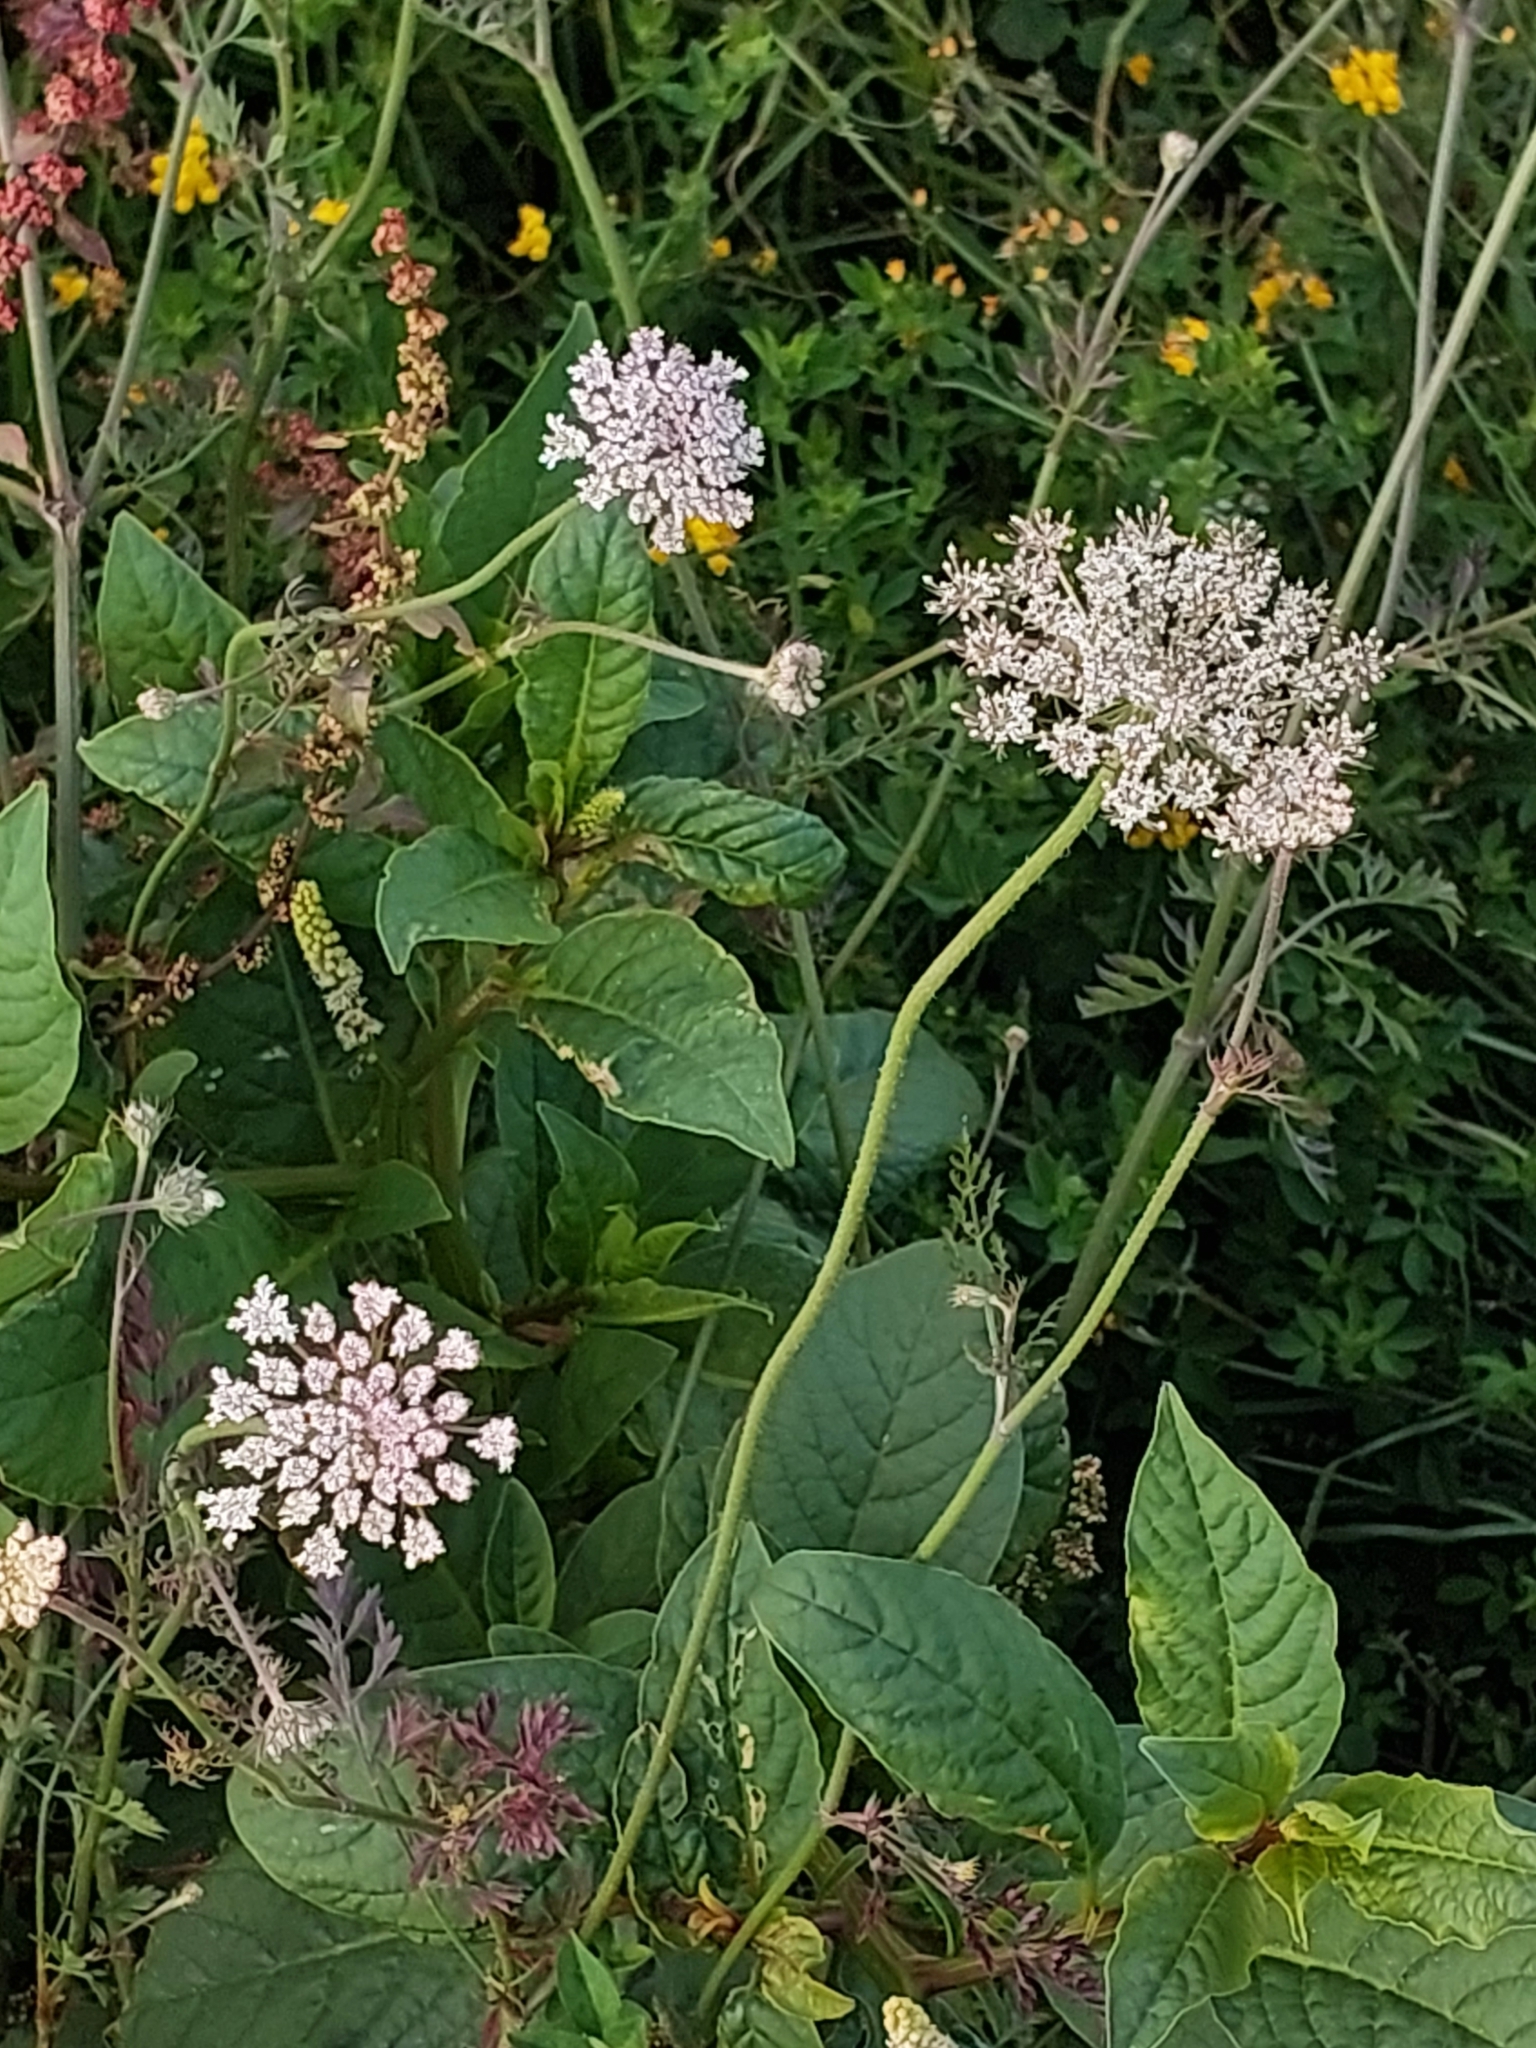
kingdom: Plantae
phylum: Tracheophyta
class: Magnoliopsida
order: Apiales
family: Apiaceae
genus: Daucus
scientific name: Daucus carota
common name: Wild carrot
